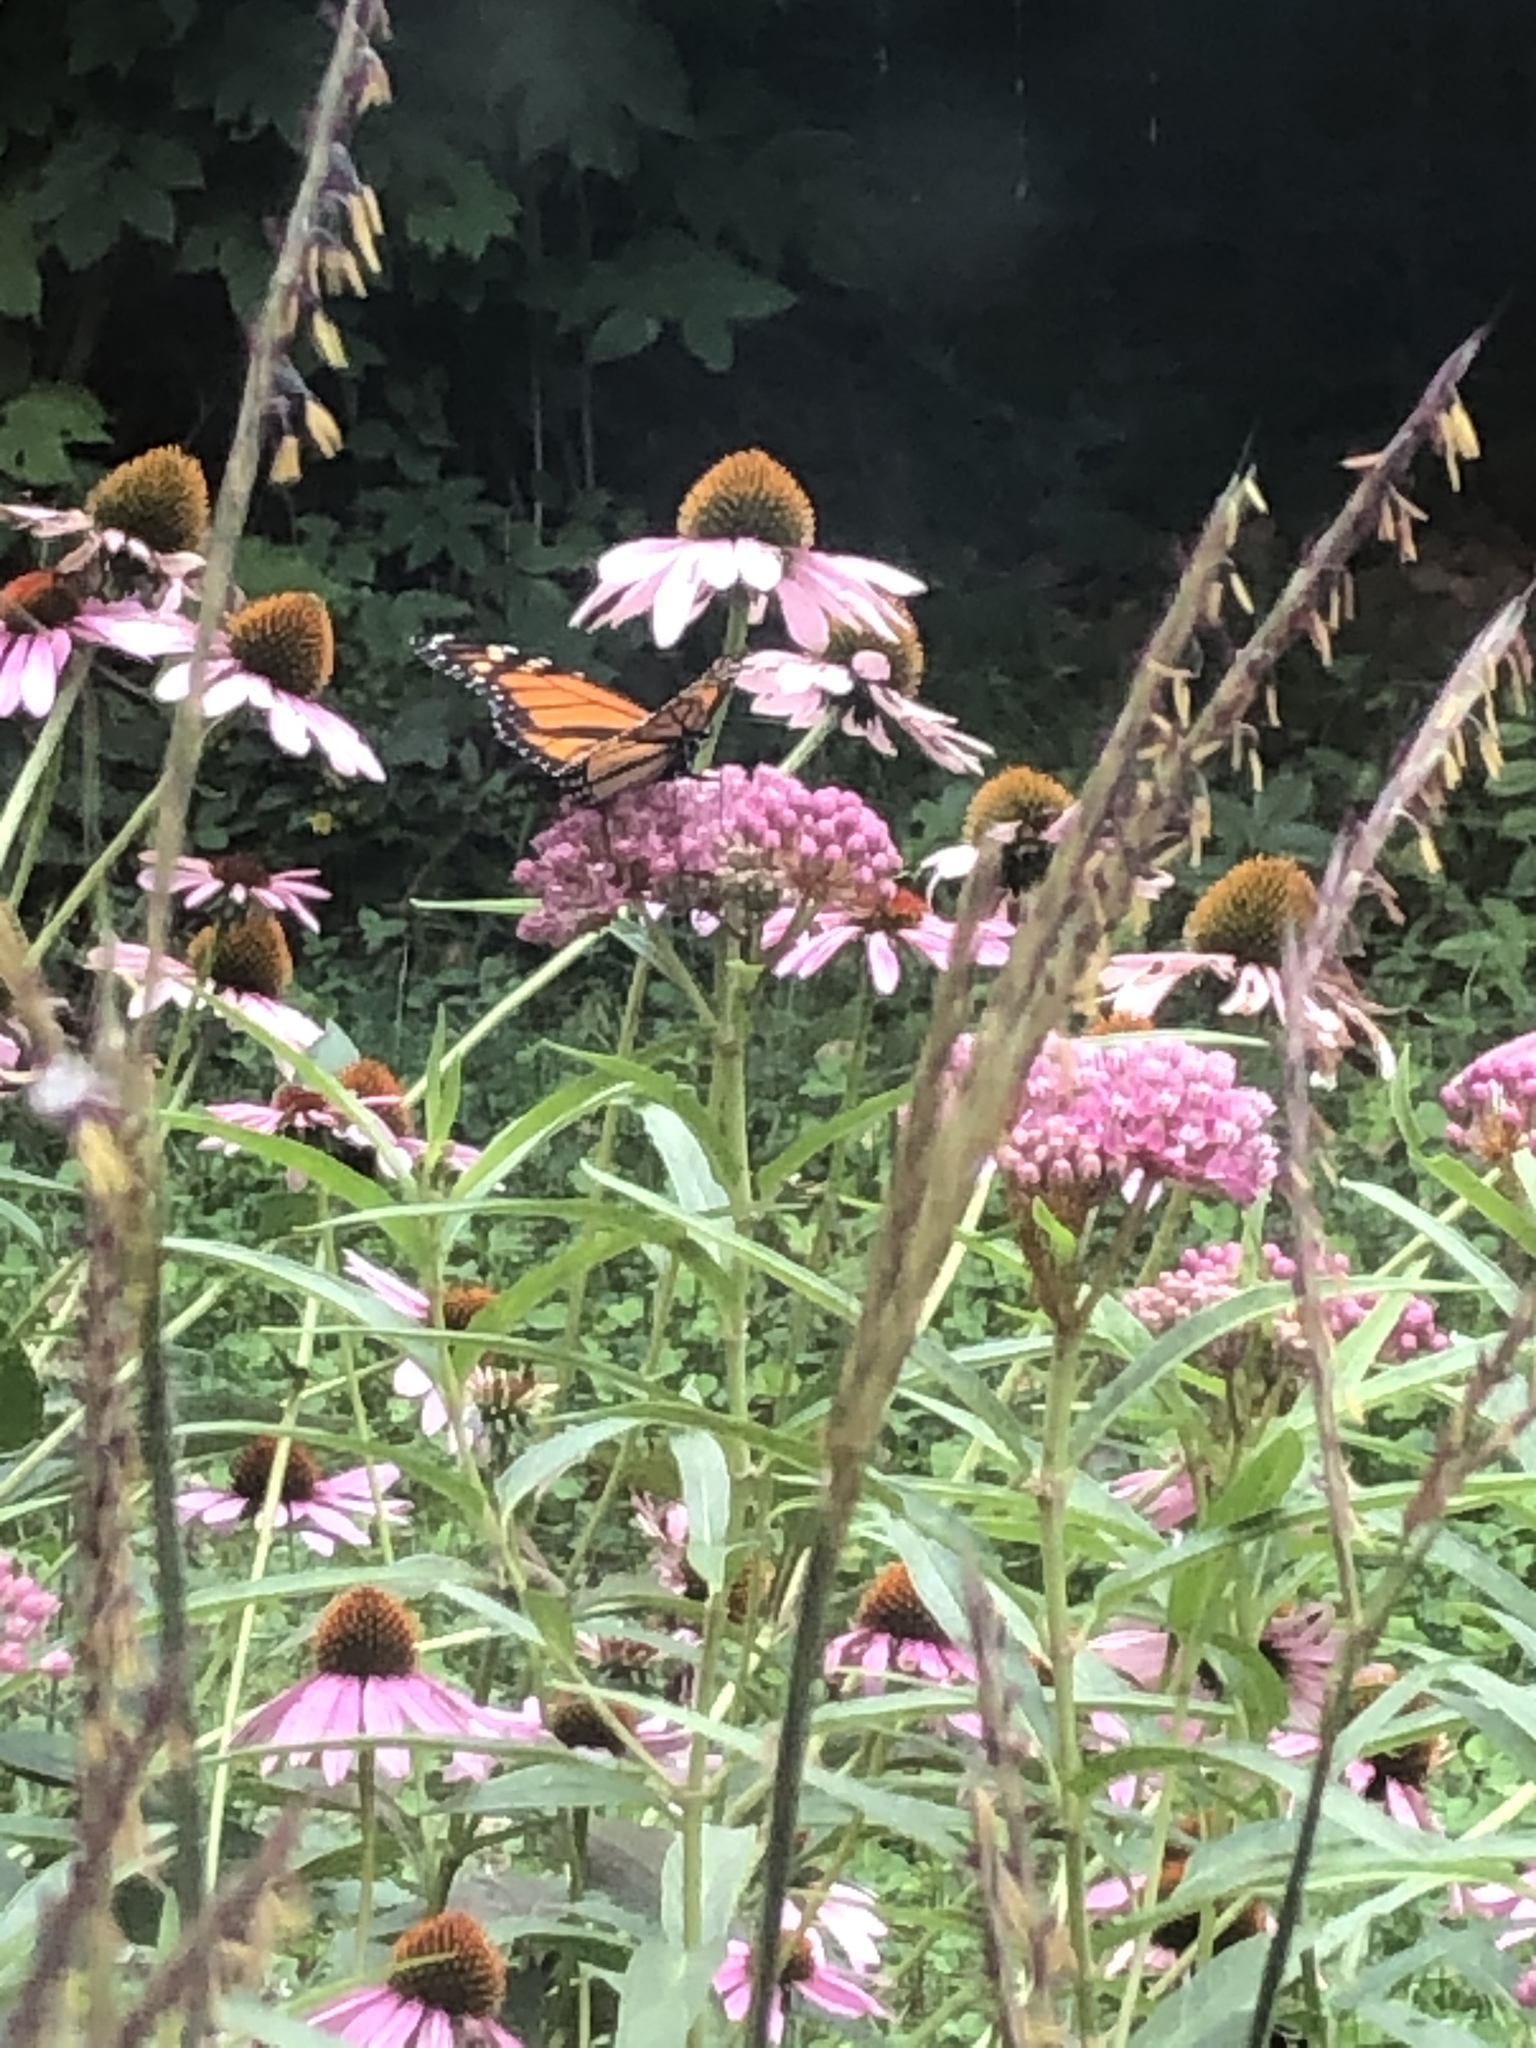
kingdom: Animalia
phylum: Arthropoda
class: Insecta
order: Lepidoptera
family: Nymphalidae
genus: Danaus
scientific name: Danaus plexippus
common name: Monarch
